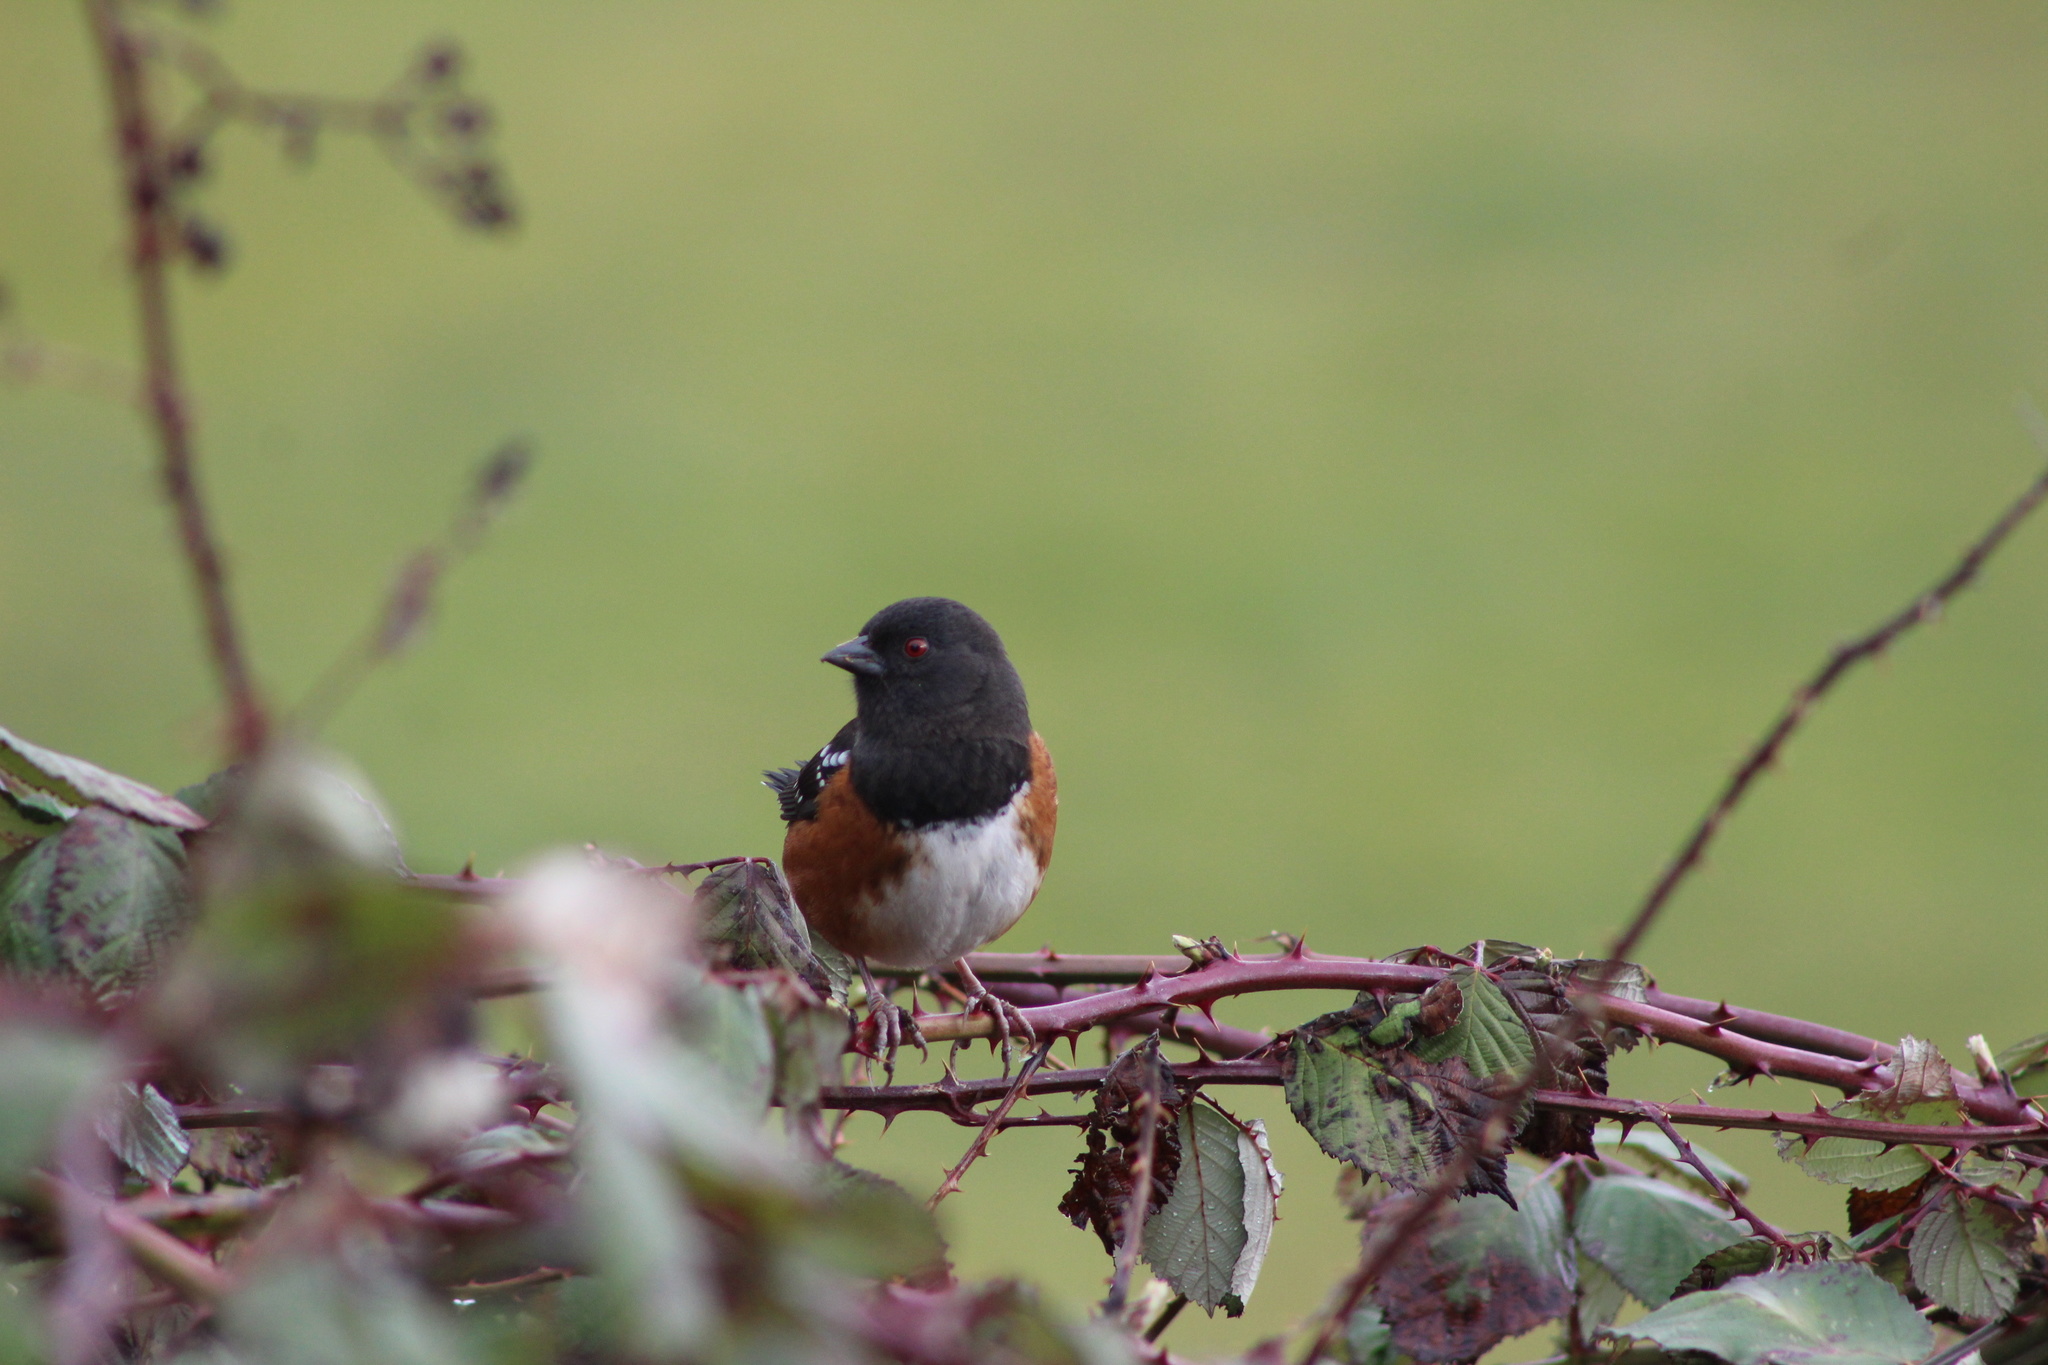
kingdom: Animalia
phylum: Chordata
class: Aves
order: Passeriformes
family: Passerellidae
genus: Pipilo
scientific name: Pipilo maculatus
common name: Spotted towhee
